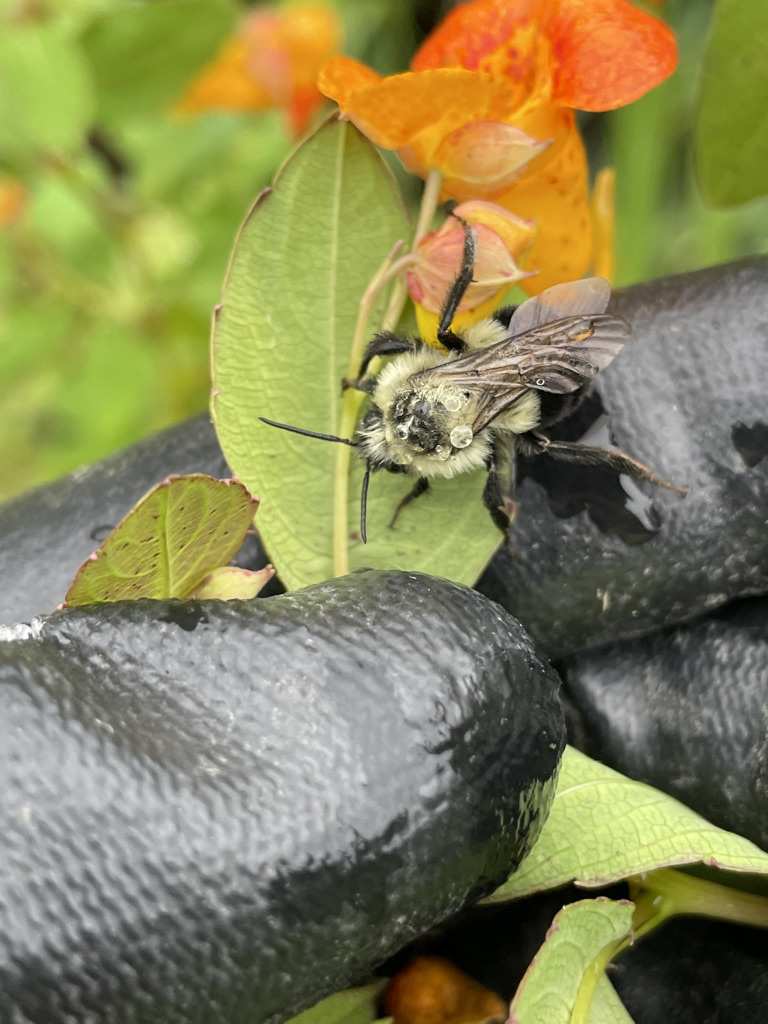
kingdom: Animalia
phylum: Arthropoda
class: Insecta
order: Hymenoptera
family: Apidae
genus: Bombus
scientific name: Bombus impatiens
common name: Common eastern bumble bee
